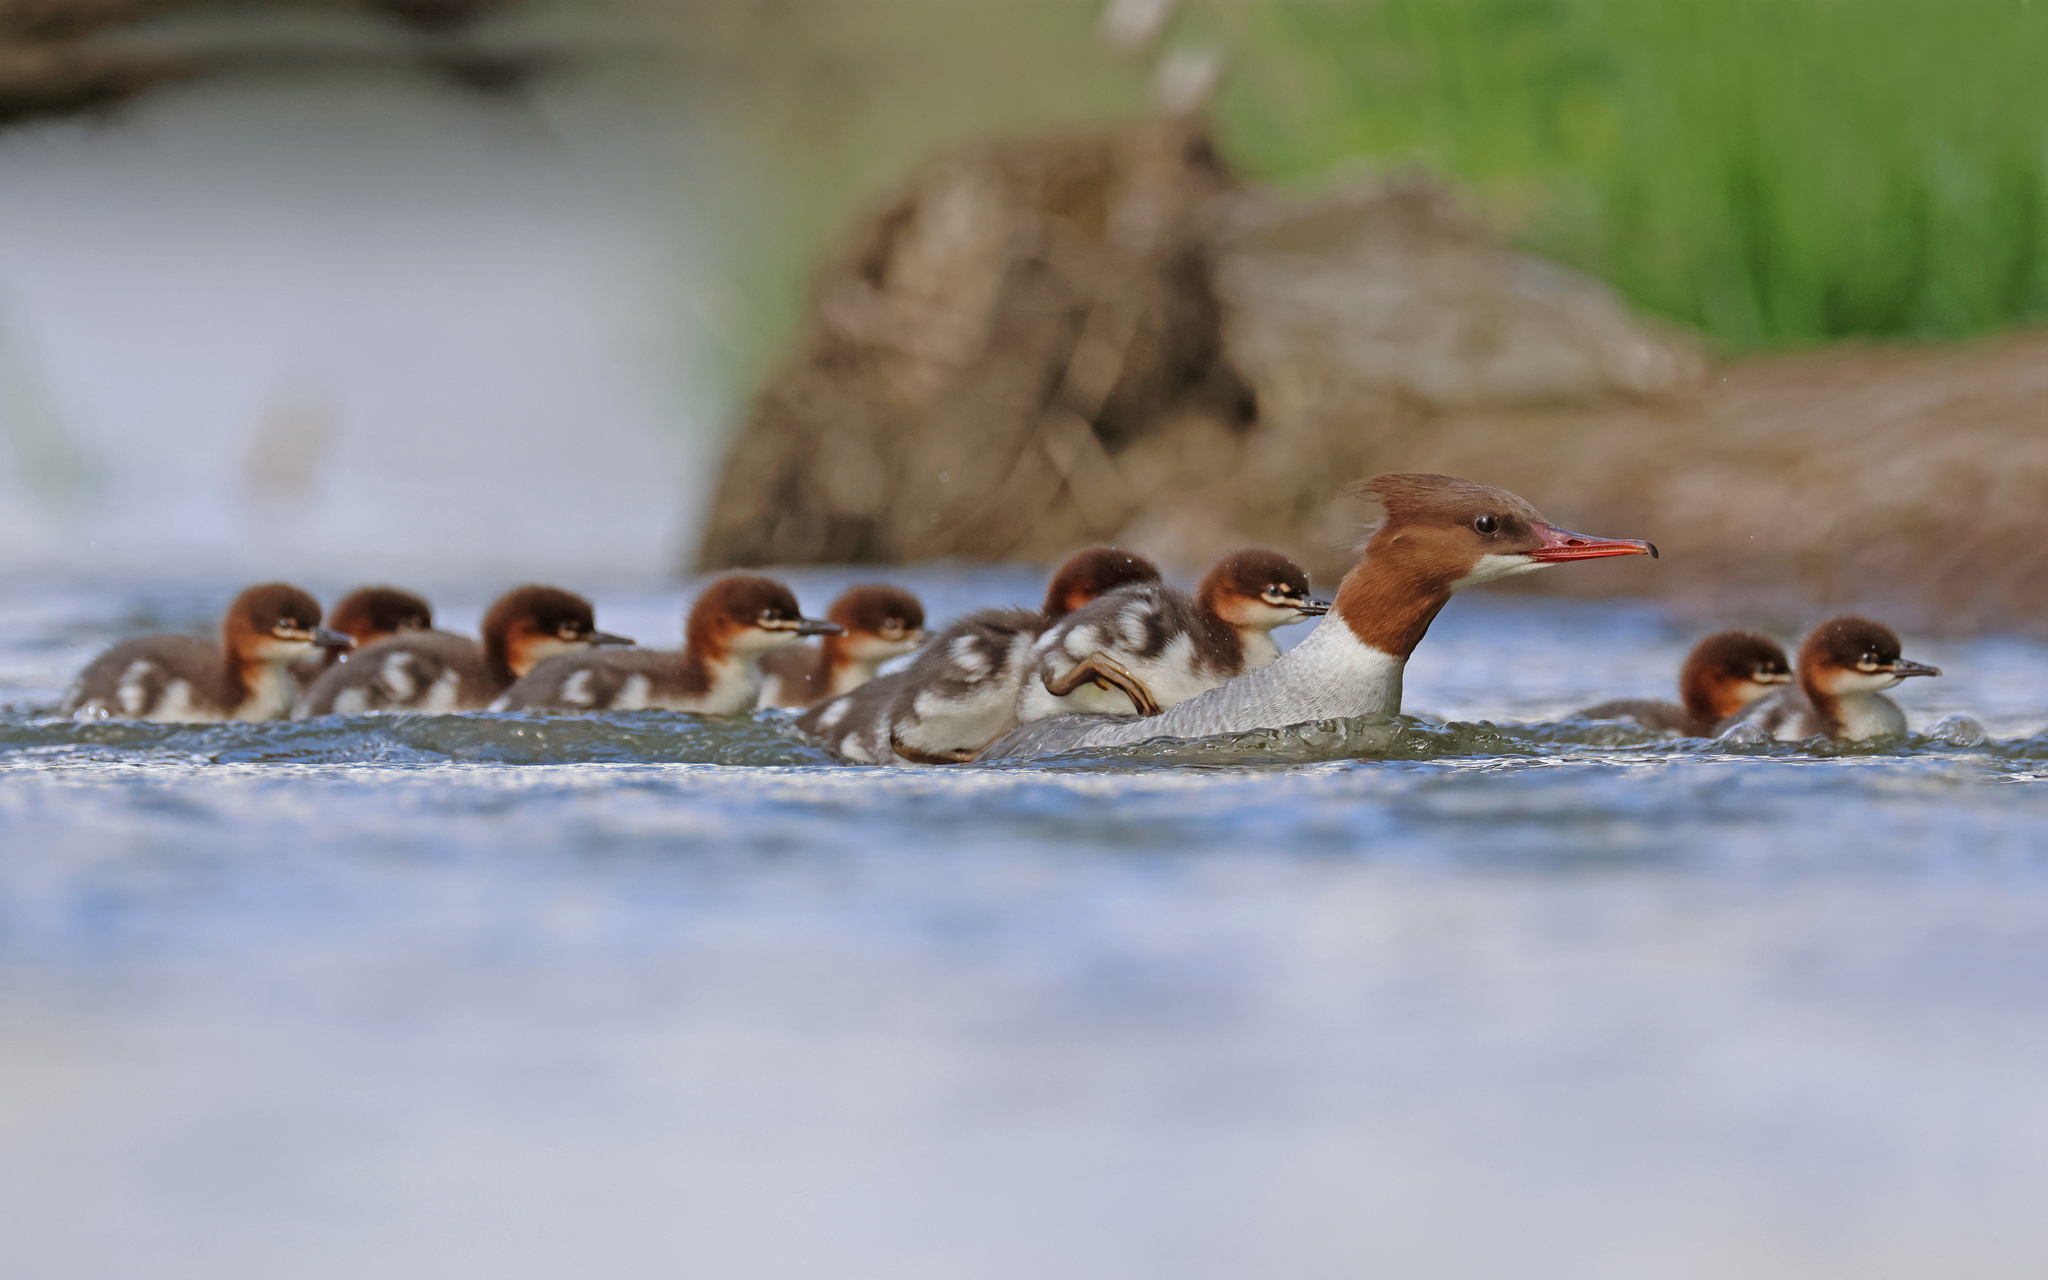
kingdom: Animalia
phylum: Chordata
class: Aves
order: Anseriformes
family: Anatidae
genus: Mergus
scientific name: Mergus merganser
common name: Common merganser
